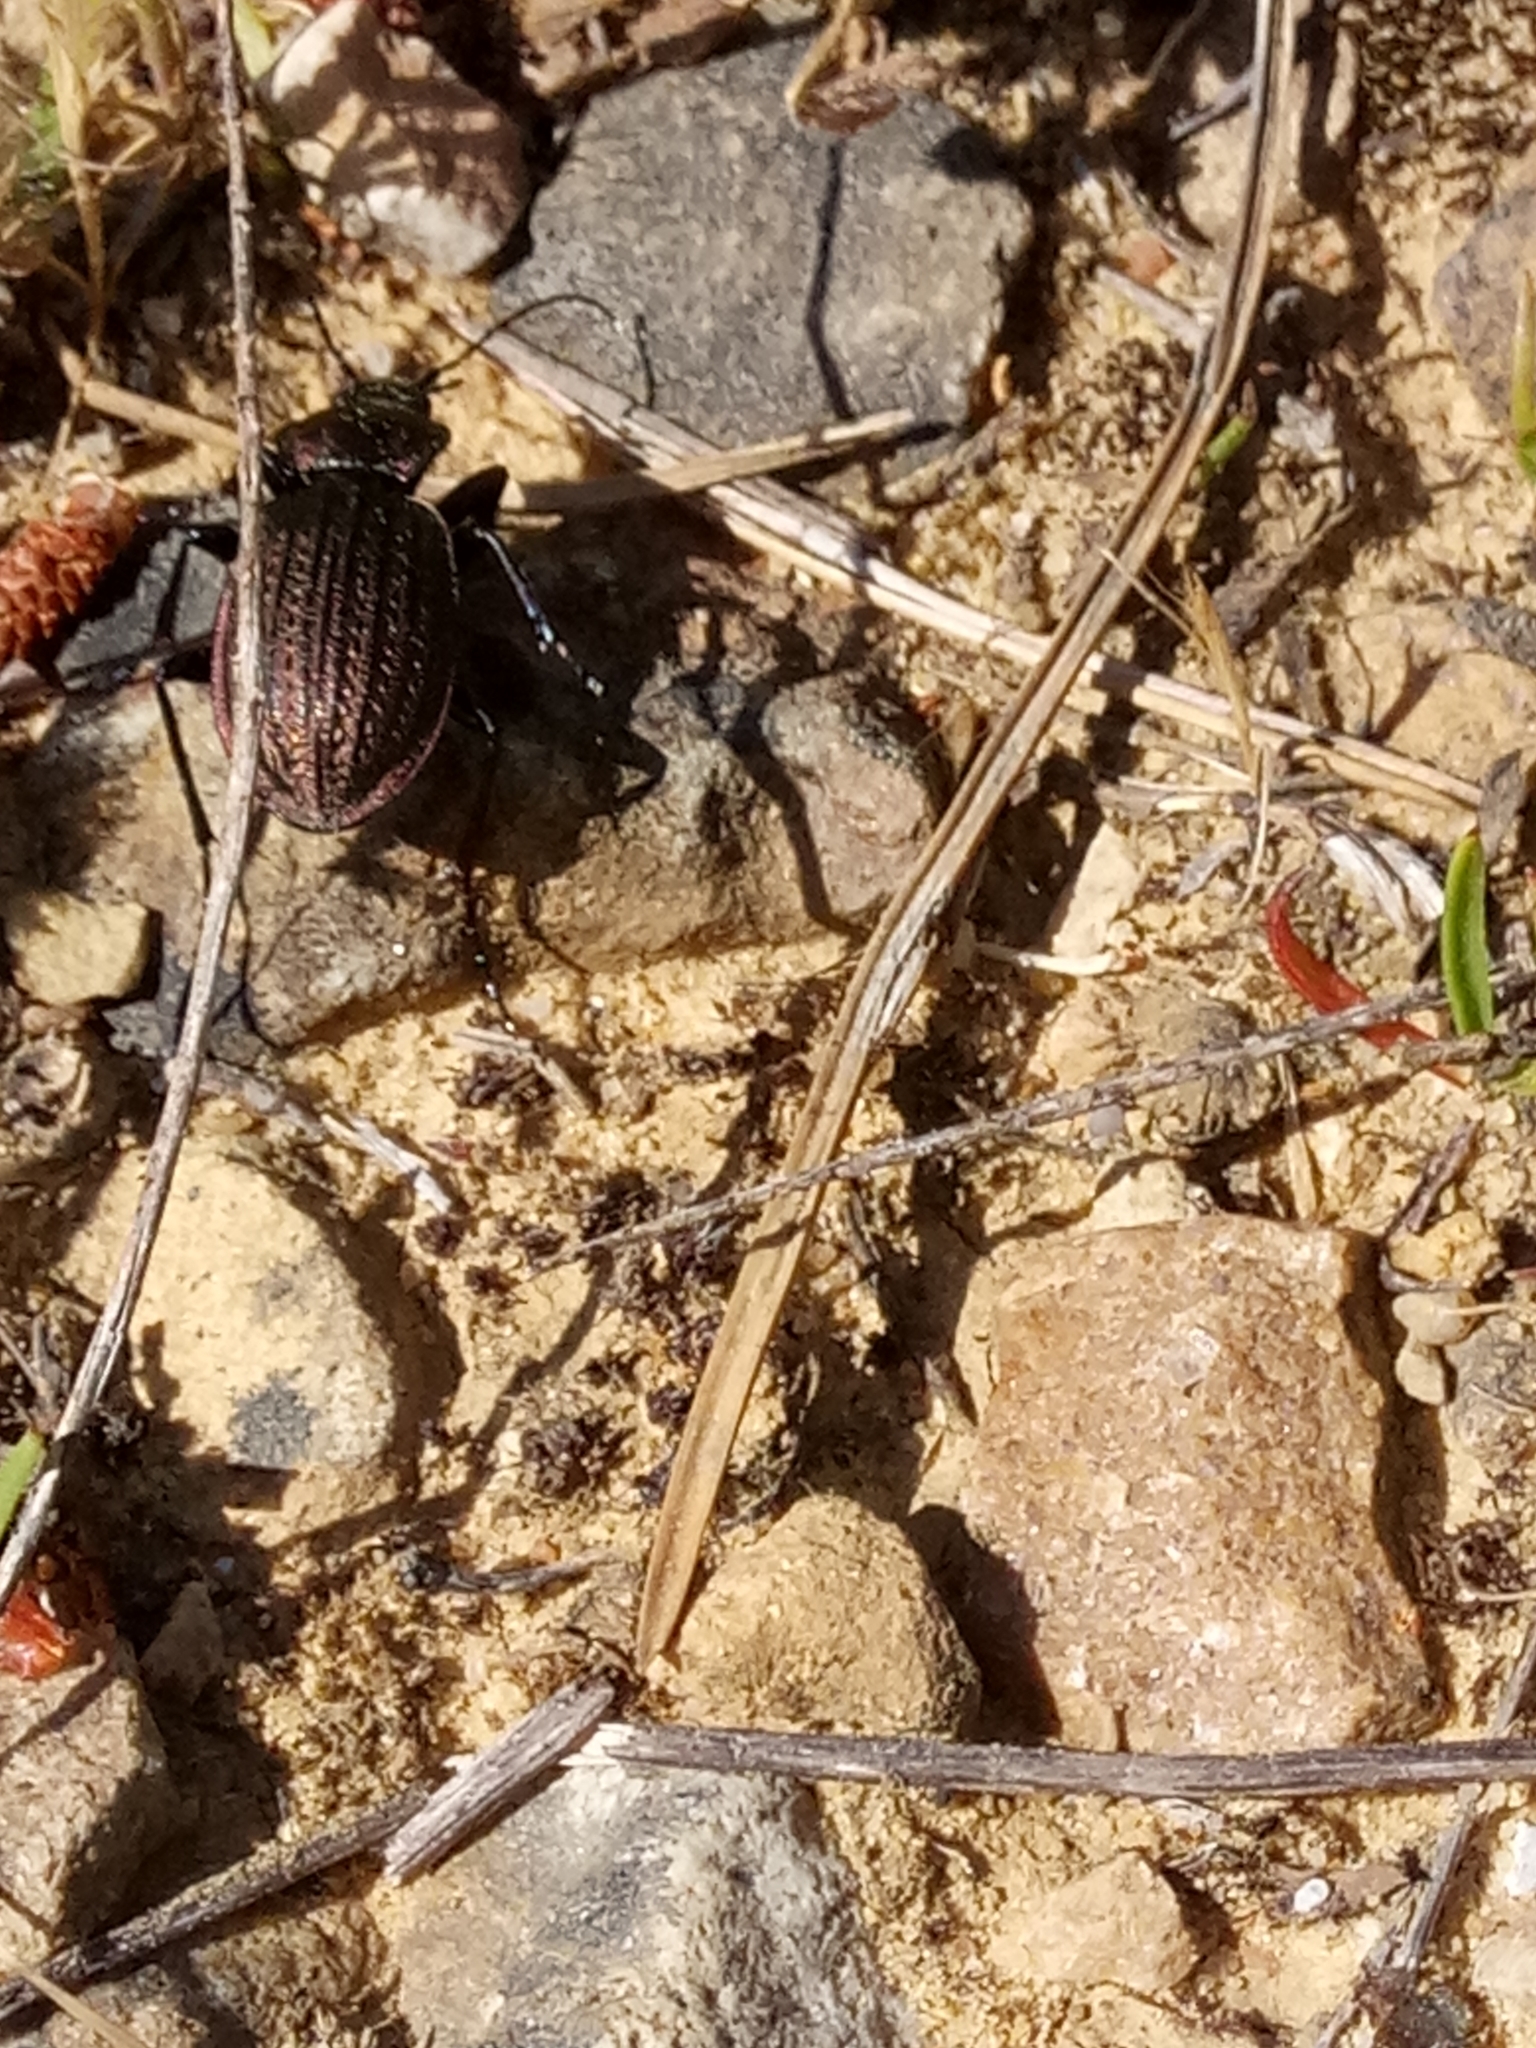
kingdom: Animalia
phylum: Arthropoda
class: Insecta
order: Coleoptera
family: Carabidae
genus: Carabus
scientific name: Carabus faminii
